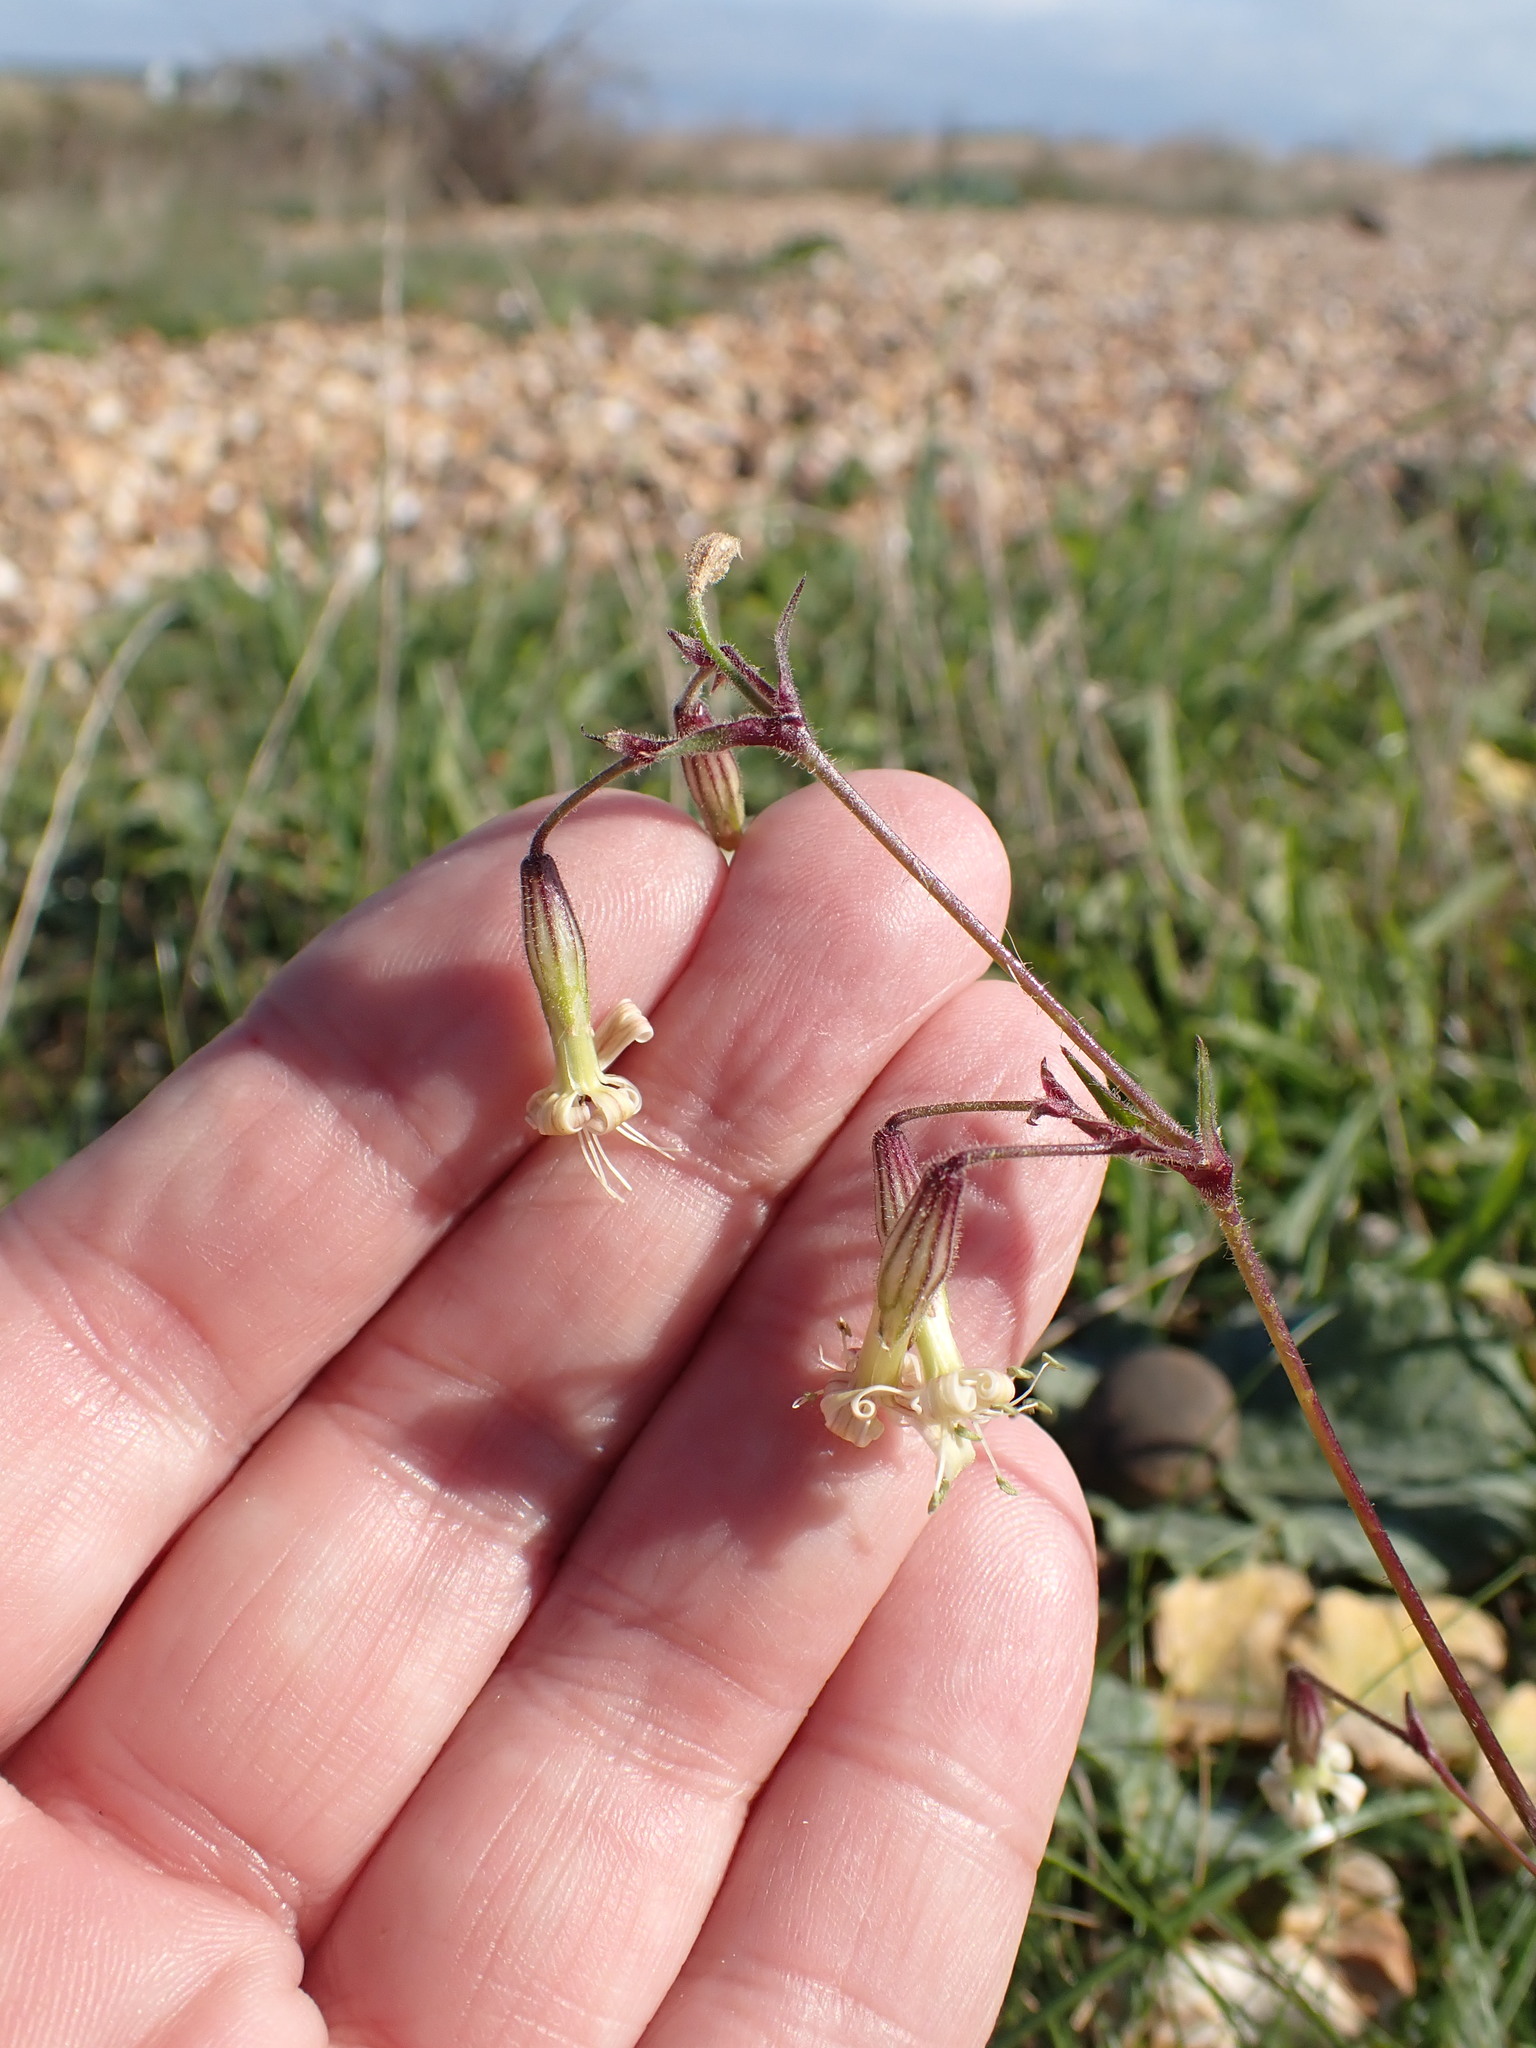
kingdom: Plantae
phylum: Tracheophyta
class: Magnoliopsida
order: Caryophyllales
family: Caryophyllaceae
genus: Silene
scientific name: Silene nutans
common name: Nottingham catchfly
